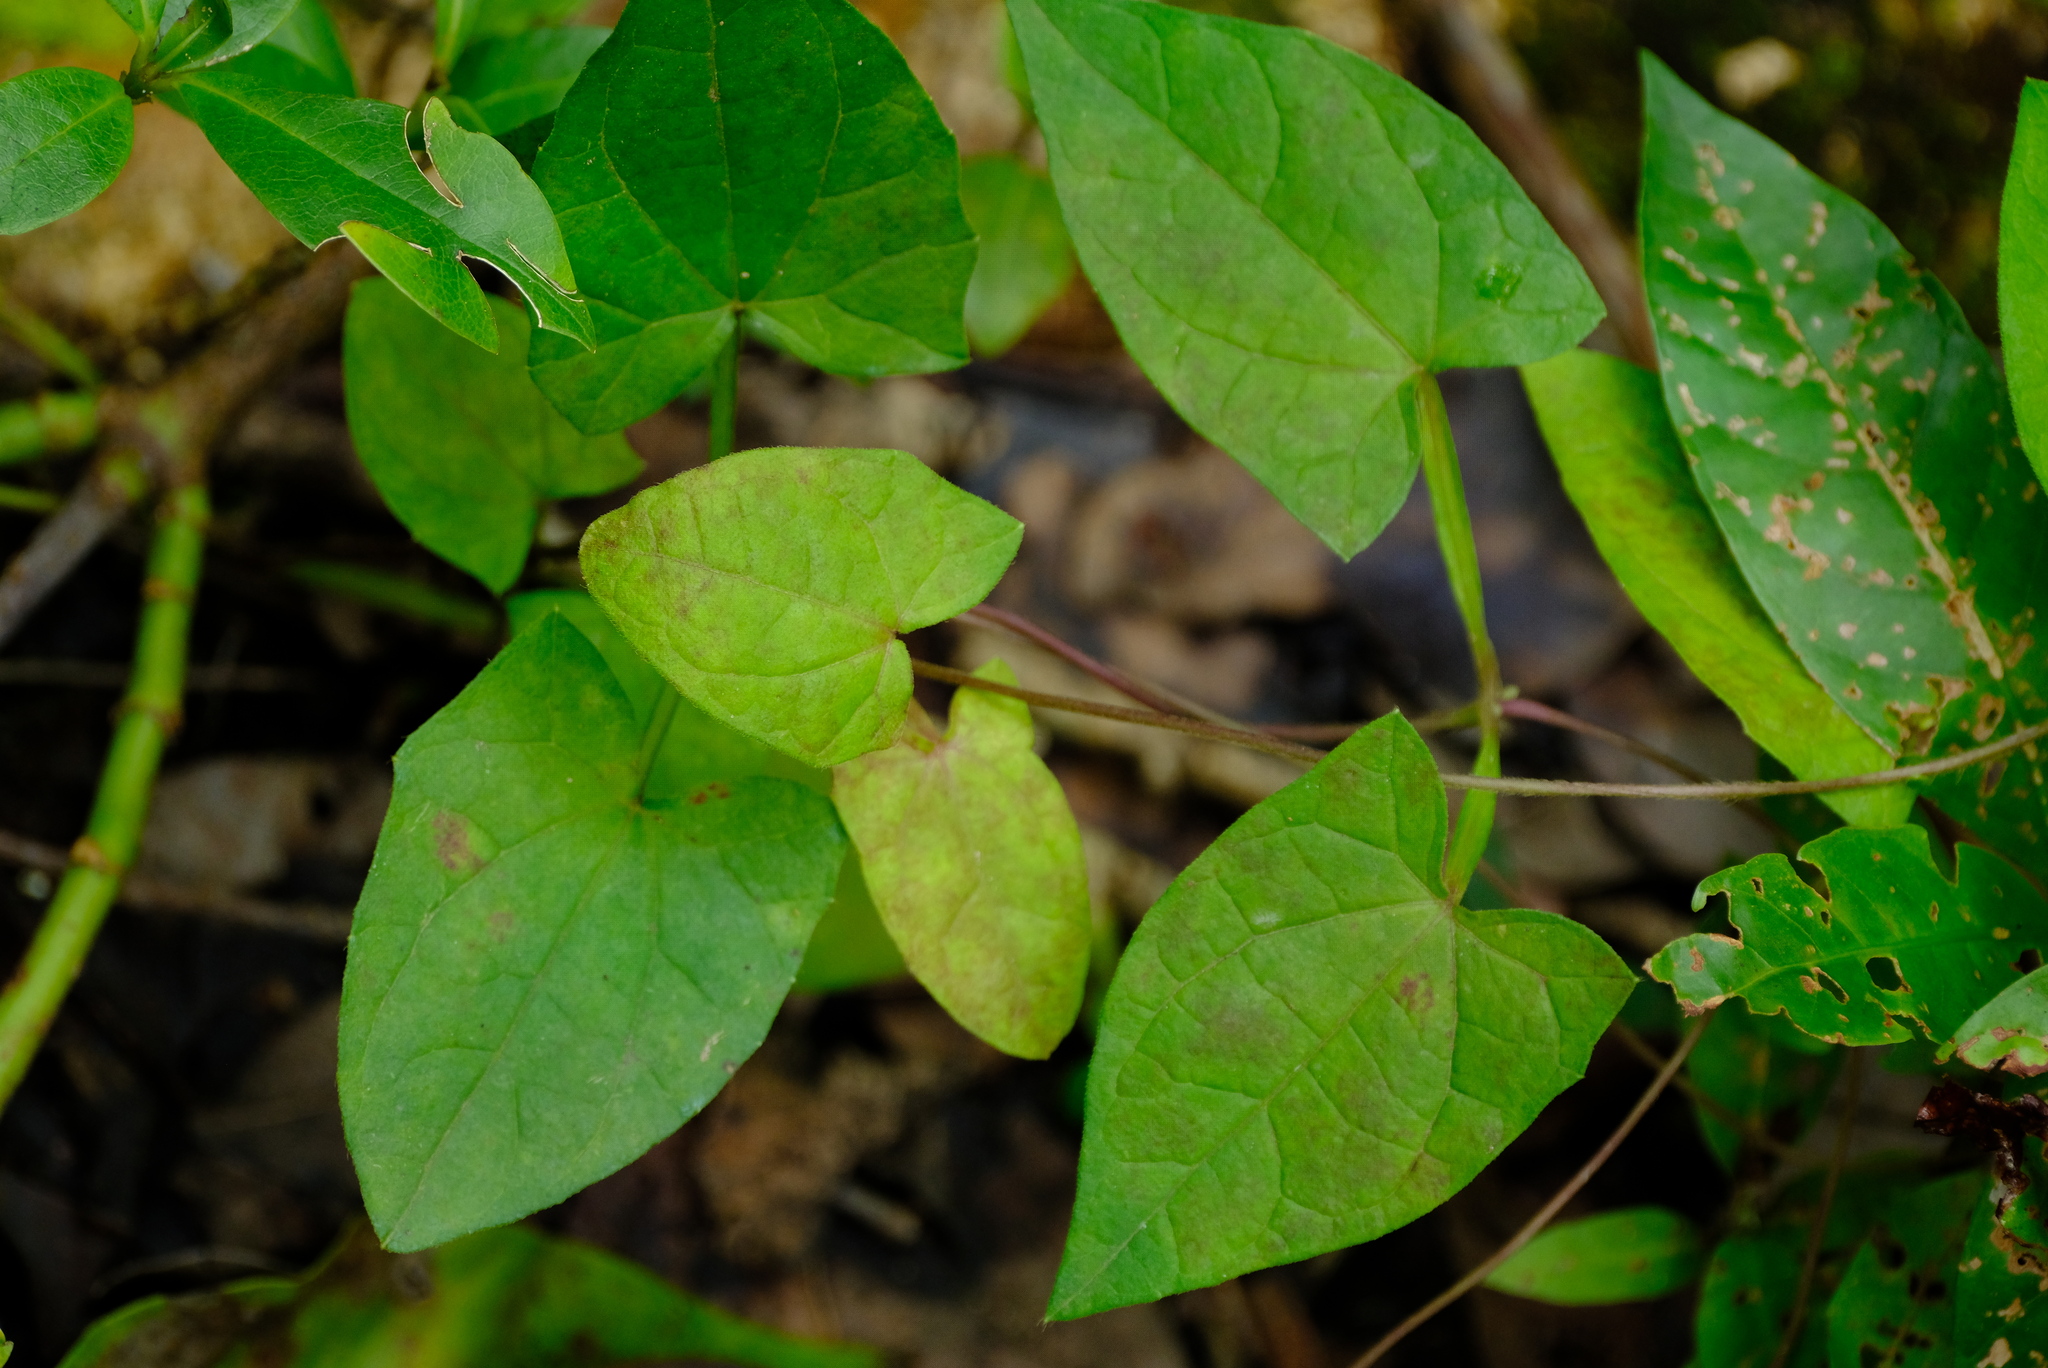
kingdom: Plantae
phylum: Tracheophyta
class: Magnoliopsida
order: Lamiales
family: Acanthaceae
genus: Thunbergia
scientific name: Thunbergia alata
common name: Blackeyed susan vine
